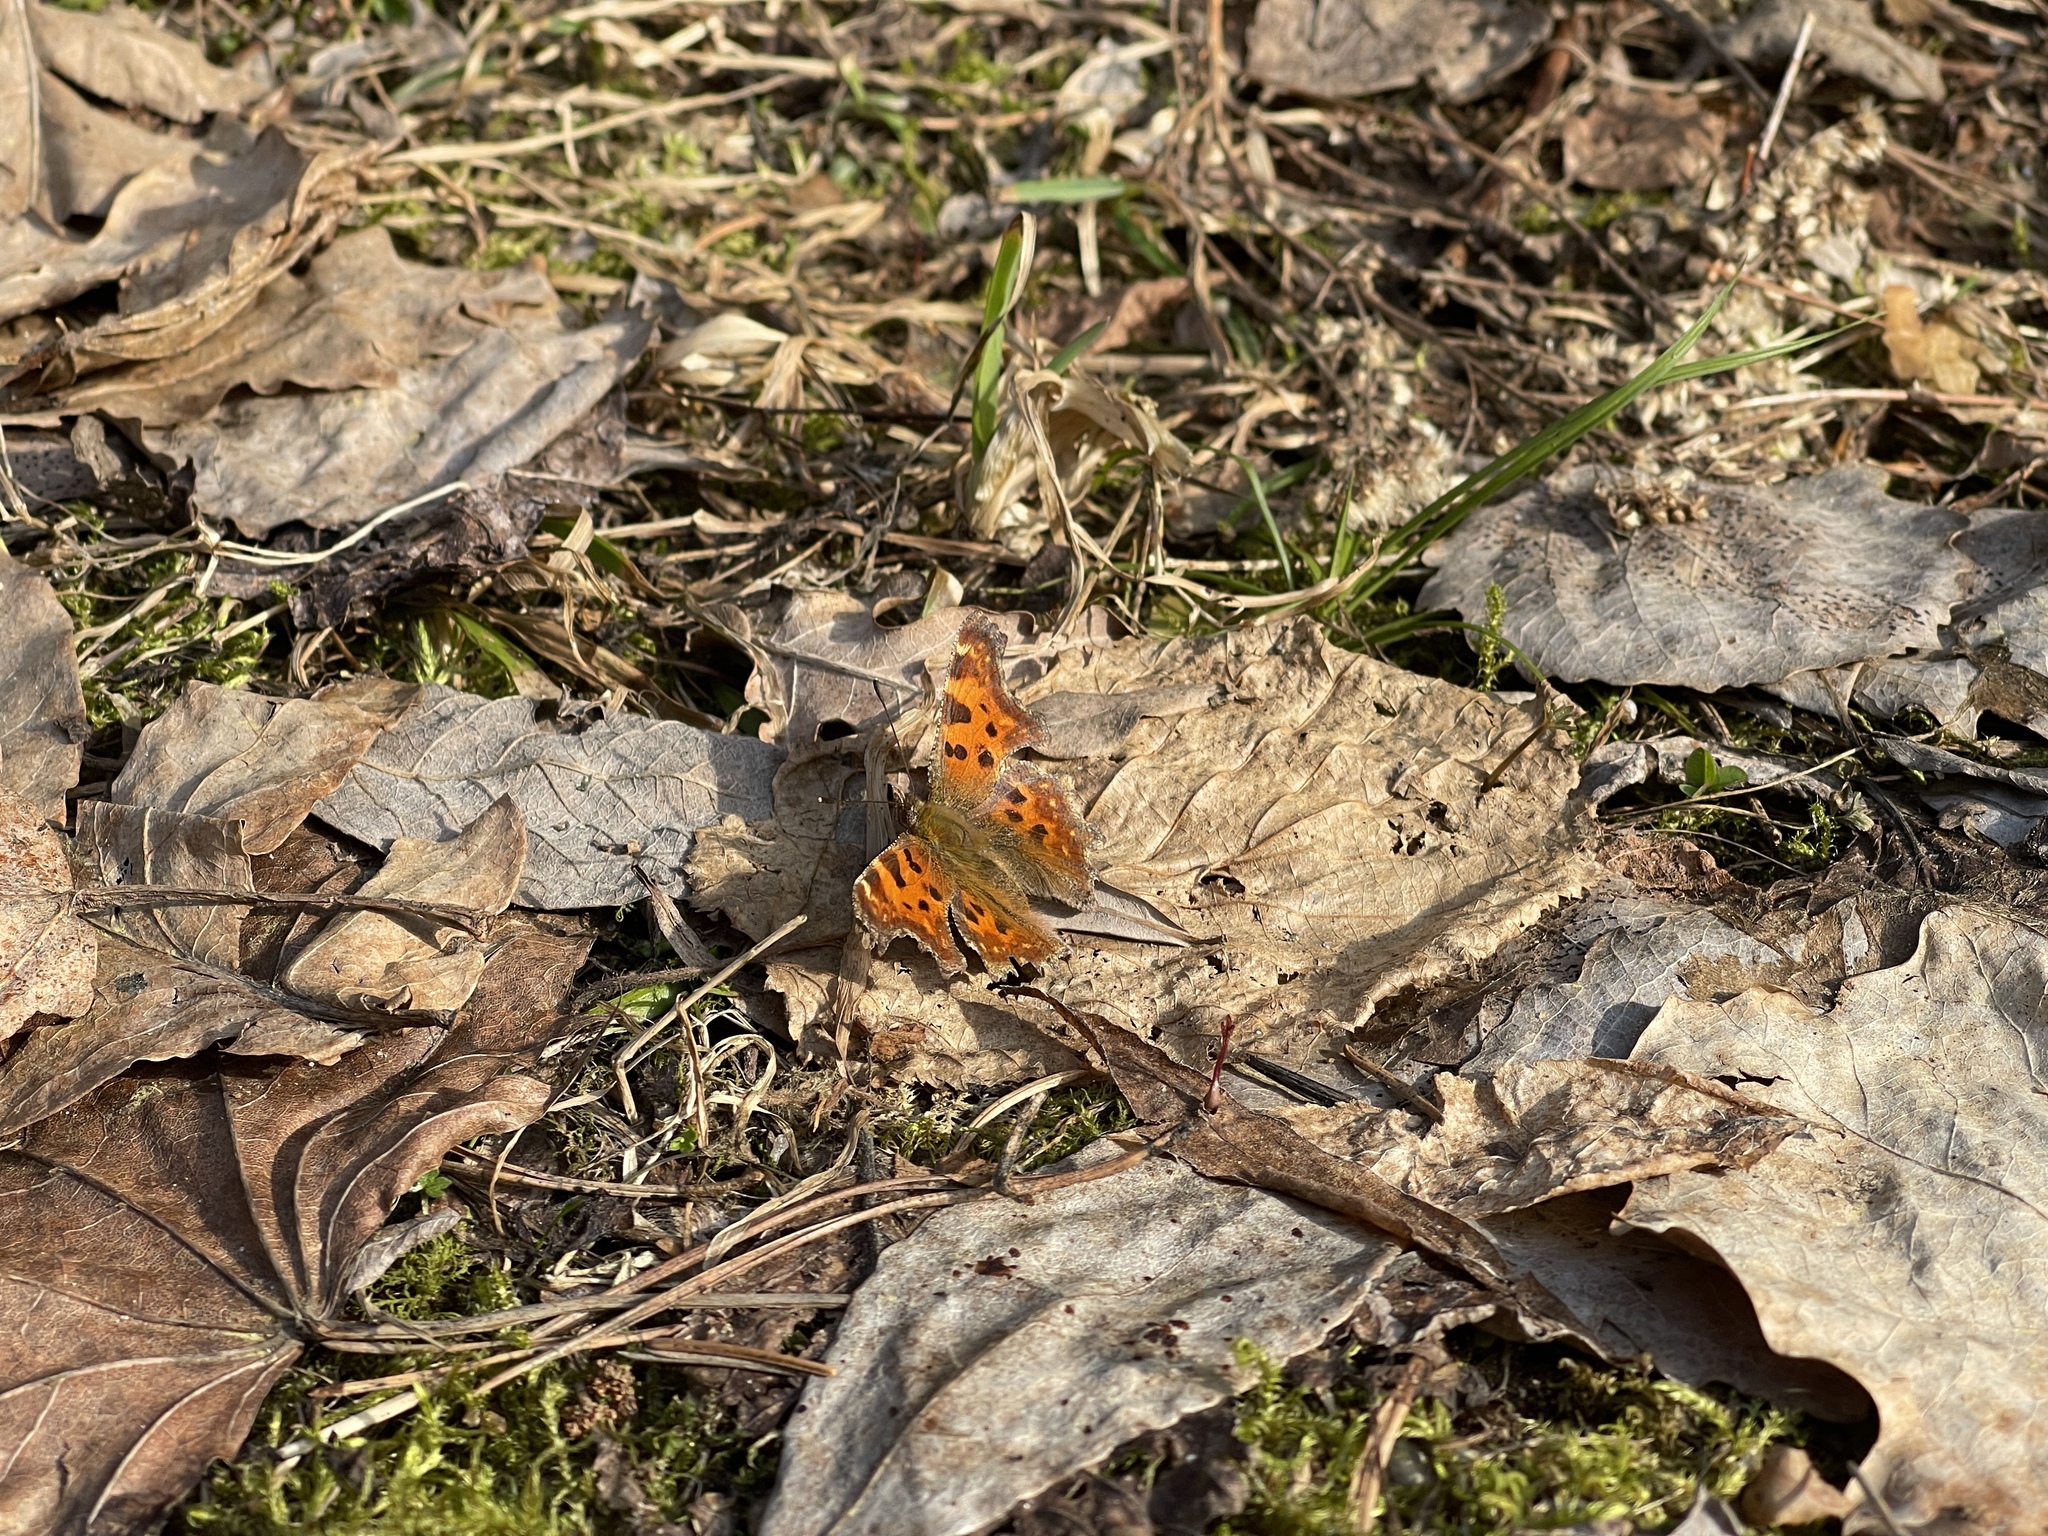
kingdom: Animalia
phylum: Arthropoda
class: Insecta
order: Lepidoptera
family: Nymphalidae
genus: Polygonia
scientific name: Polygonia c-album
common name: Comma
